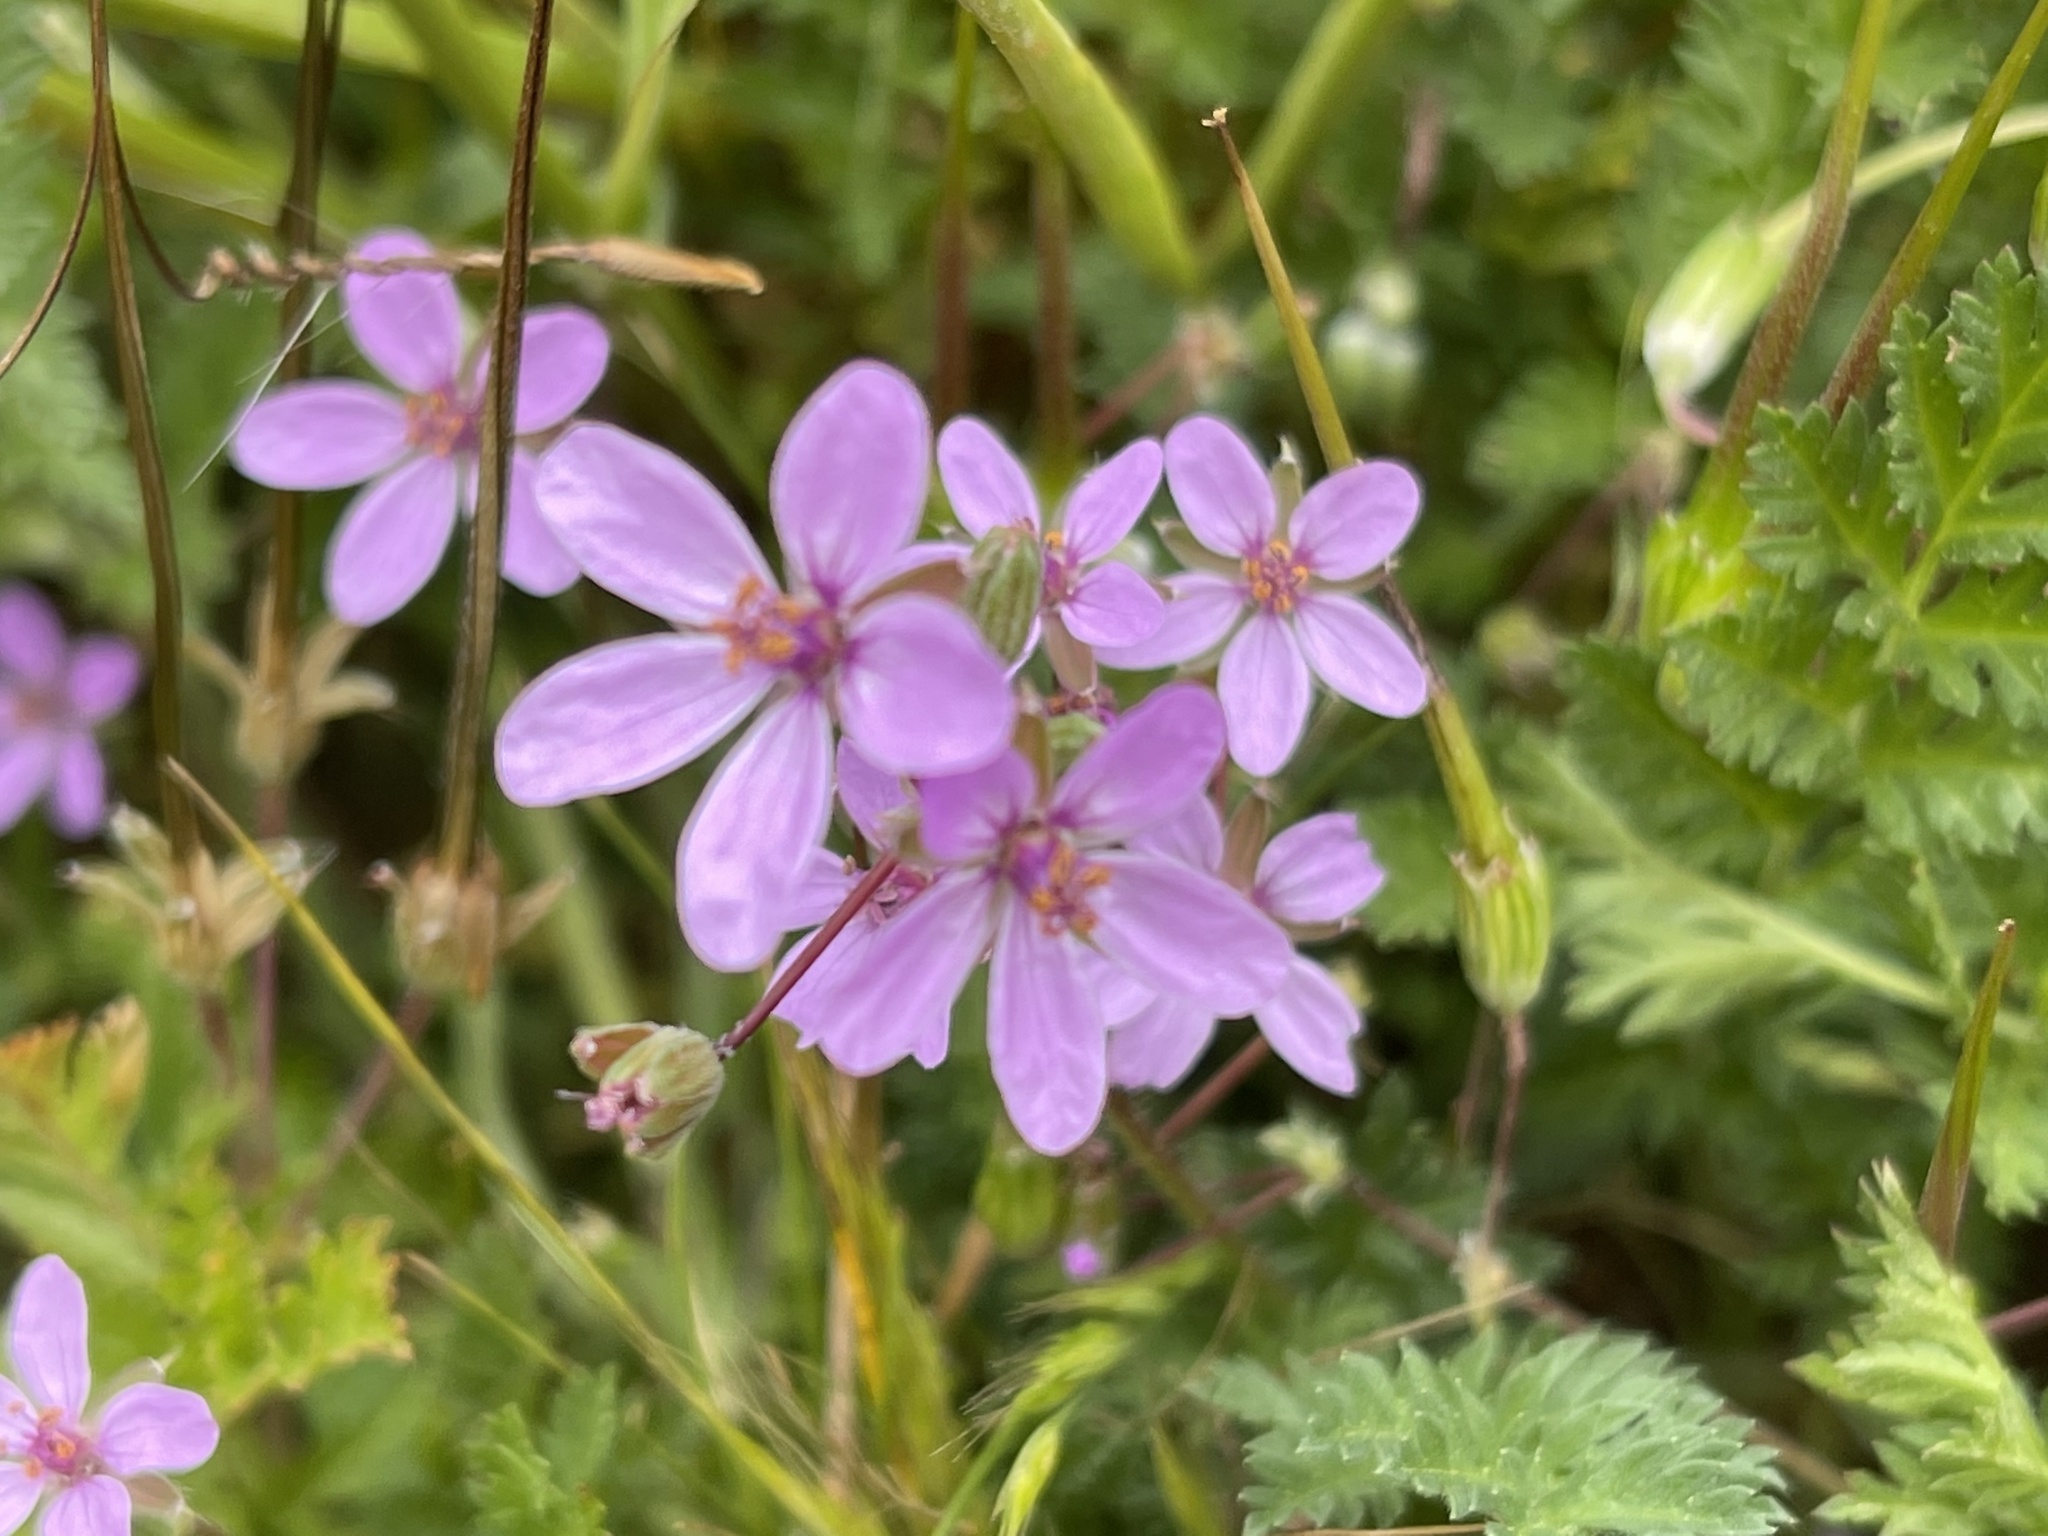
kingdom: Plantae
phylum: Tracheophyta
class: Magnoliopsida
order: Geraniales
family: Geraniaceae
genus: Erodium
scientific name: Erodium cicutarium
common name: Common stork's-bill
